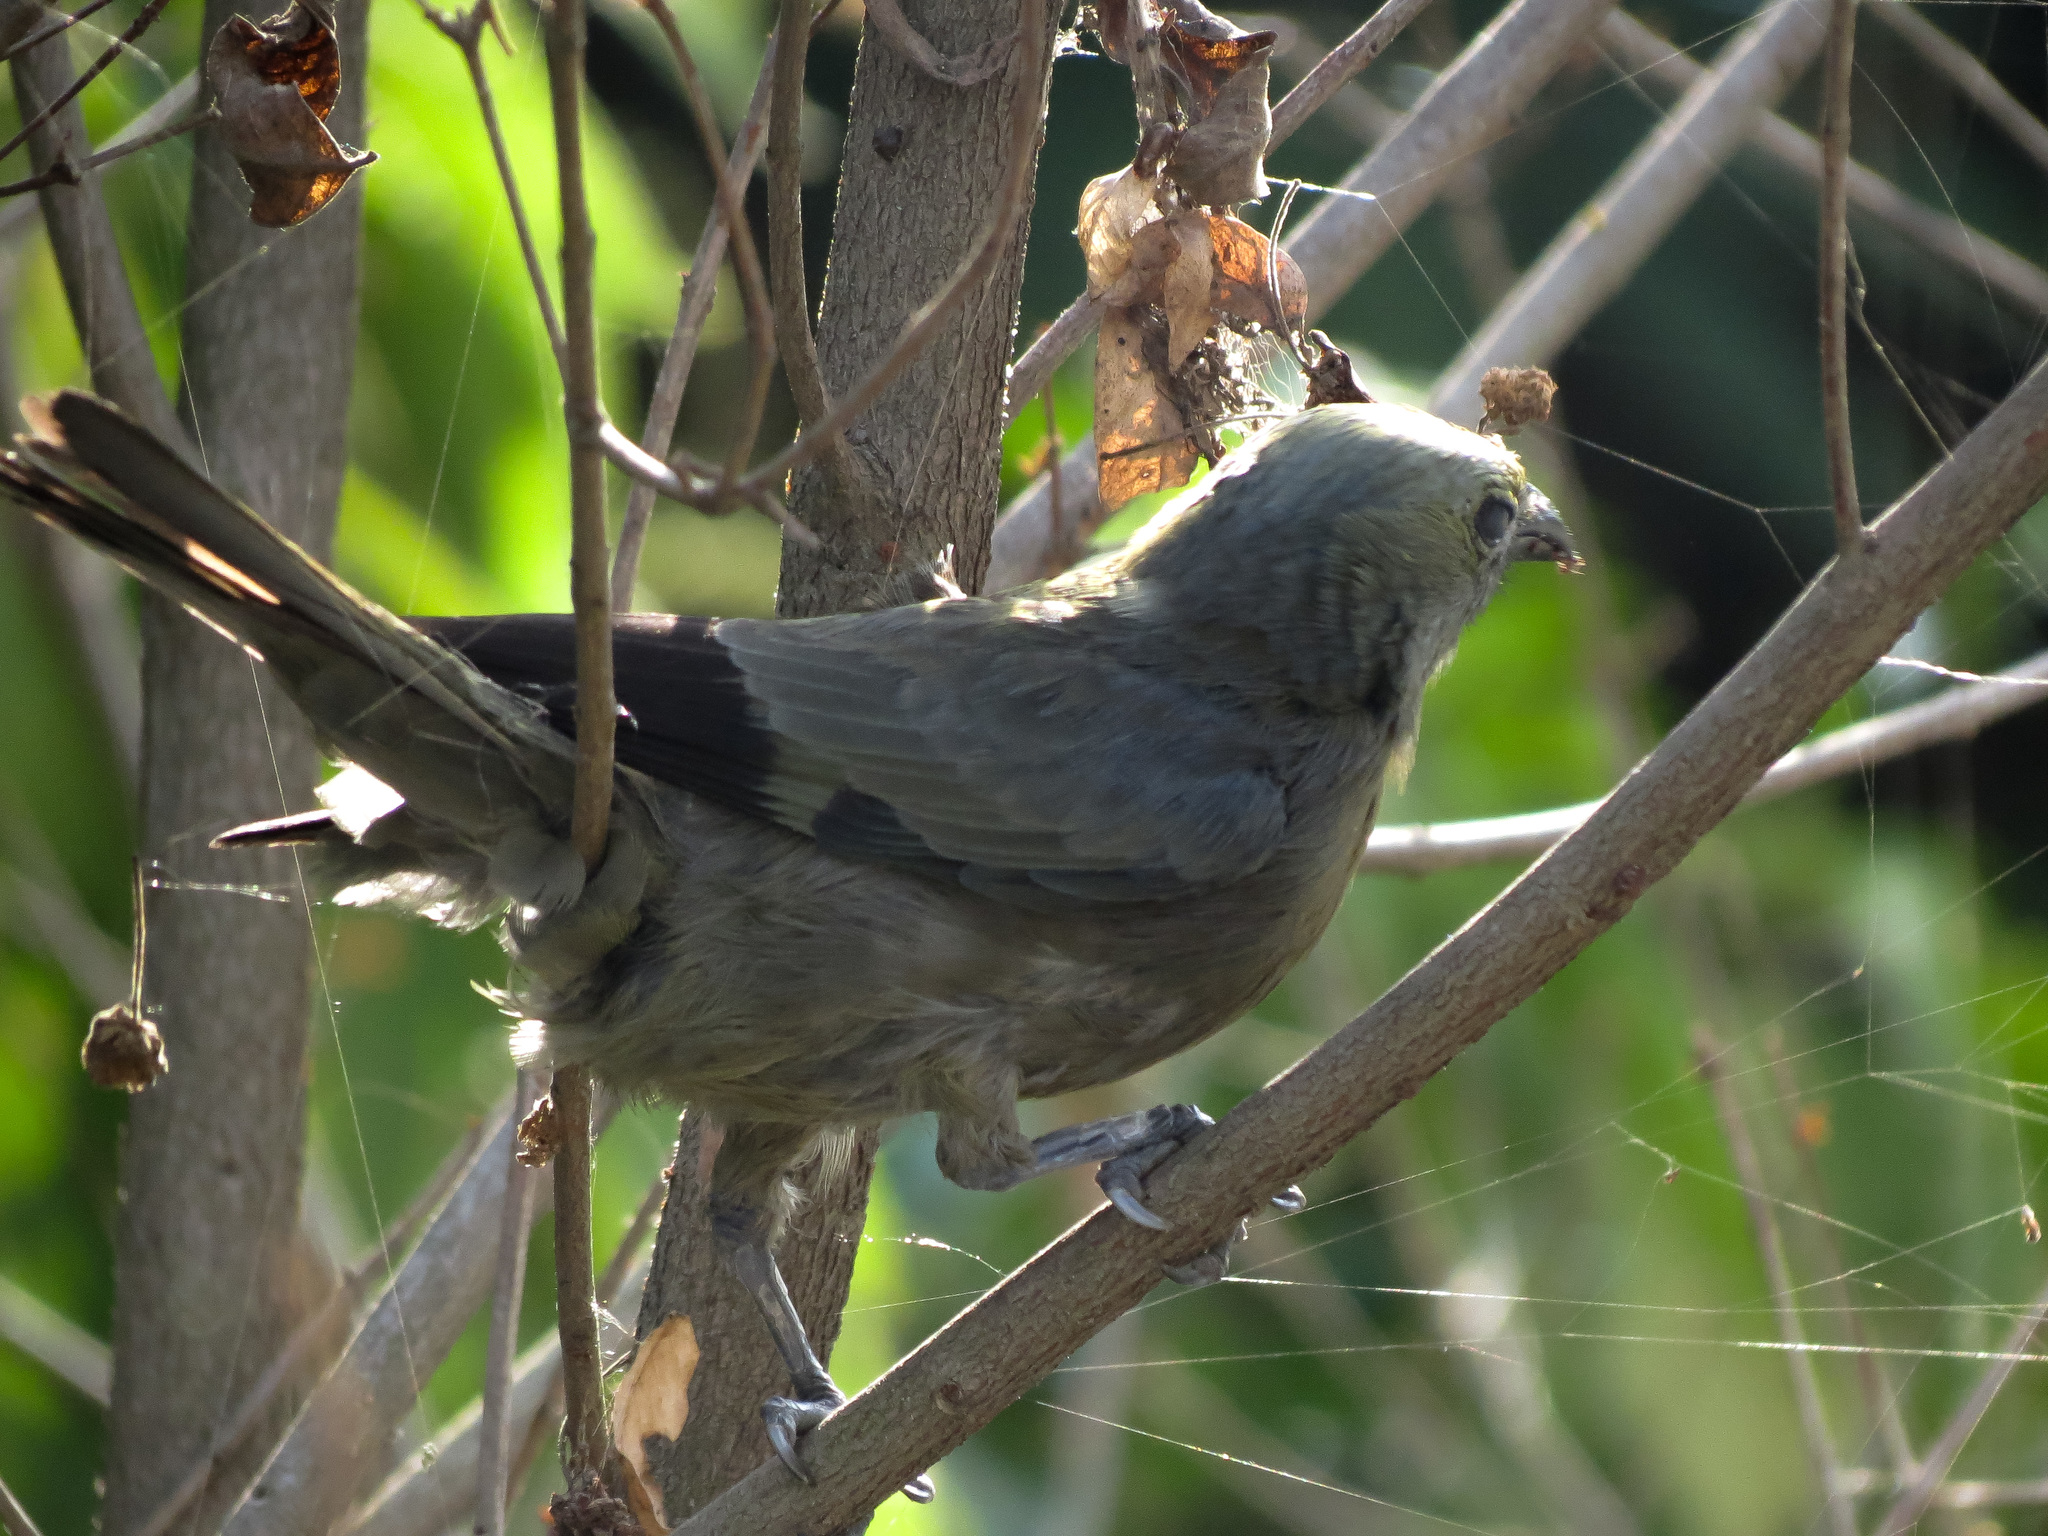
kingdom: Animalia
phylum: Chordata
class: Aves
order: Passeriformes
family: Thraupidae
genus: Thraupis
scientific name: Thraupis palmarum
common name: Palm tanager
